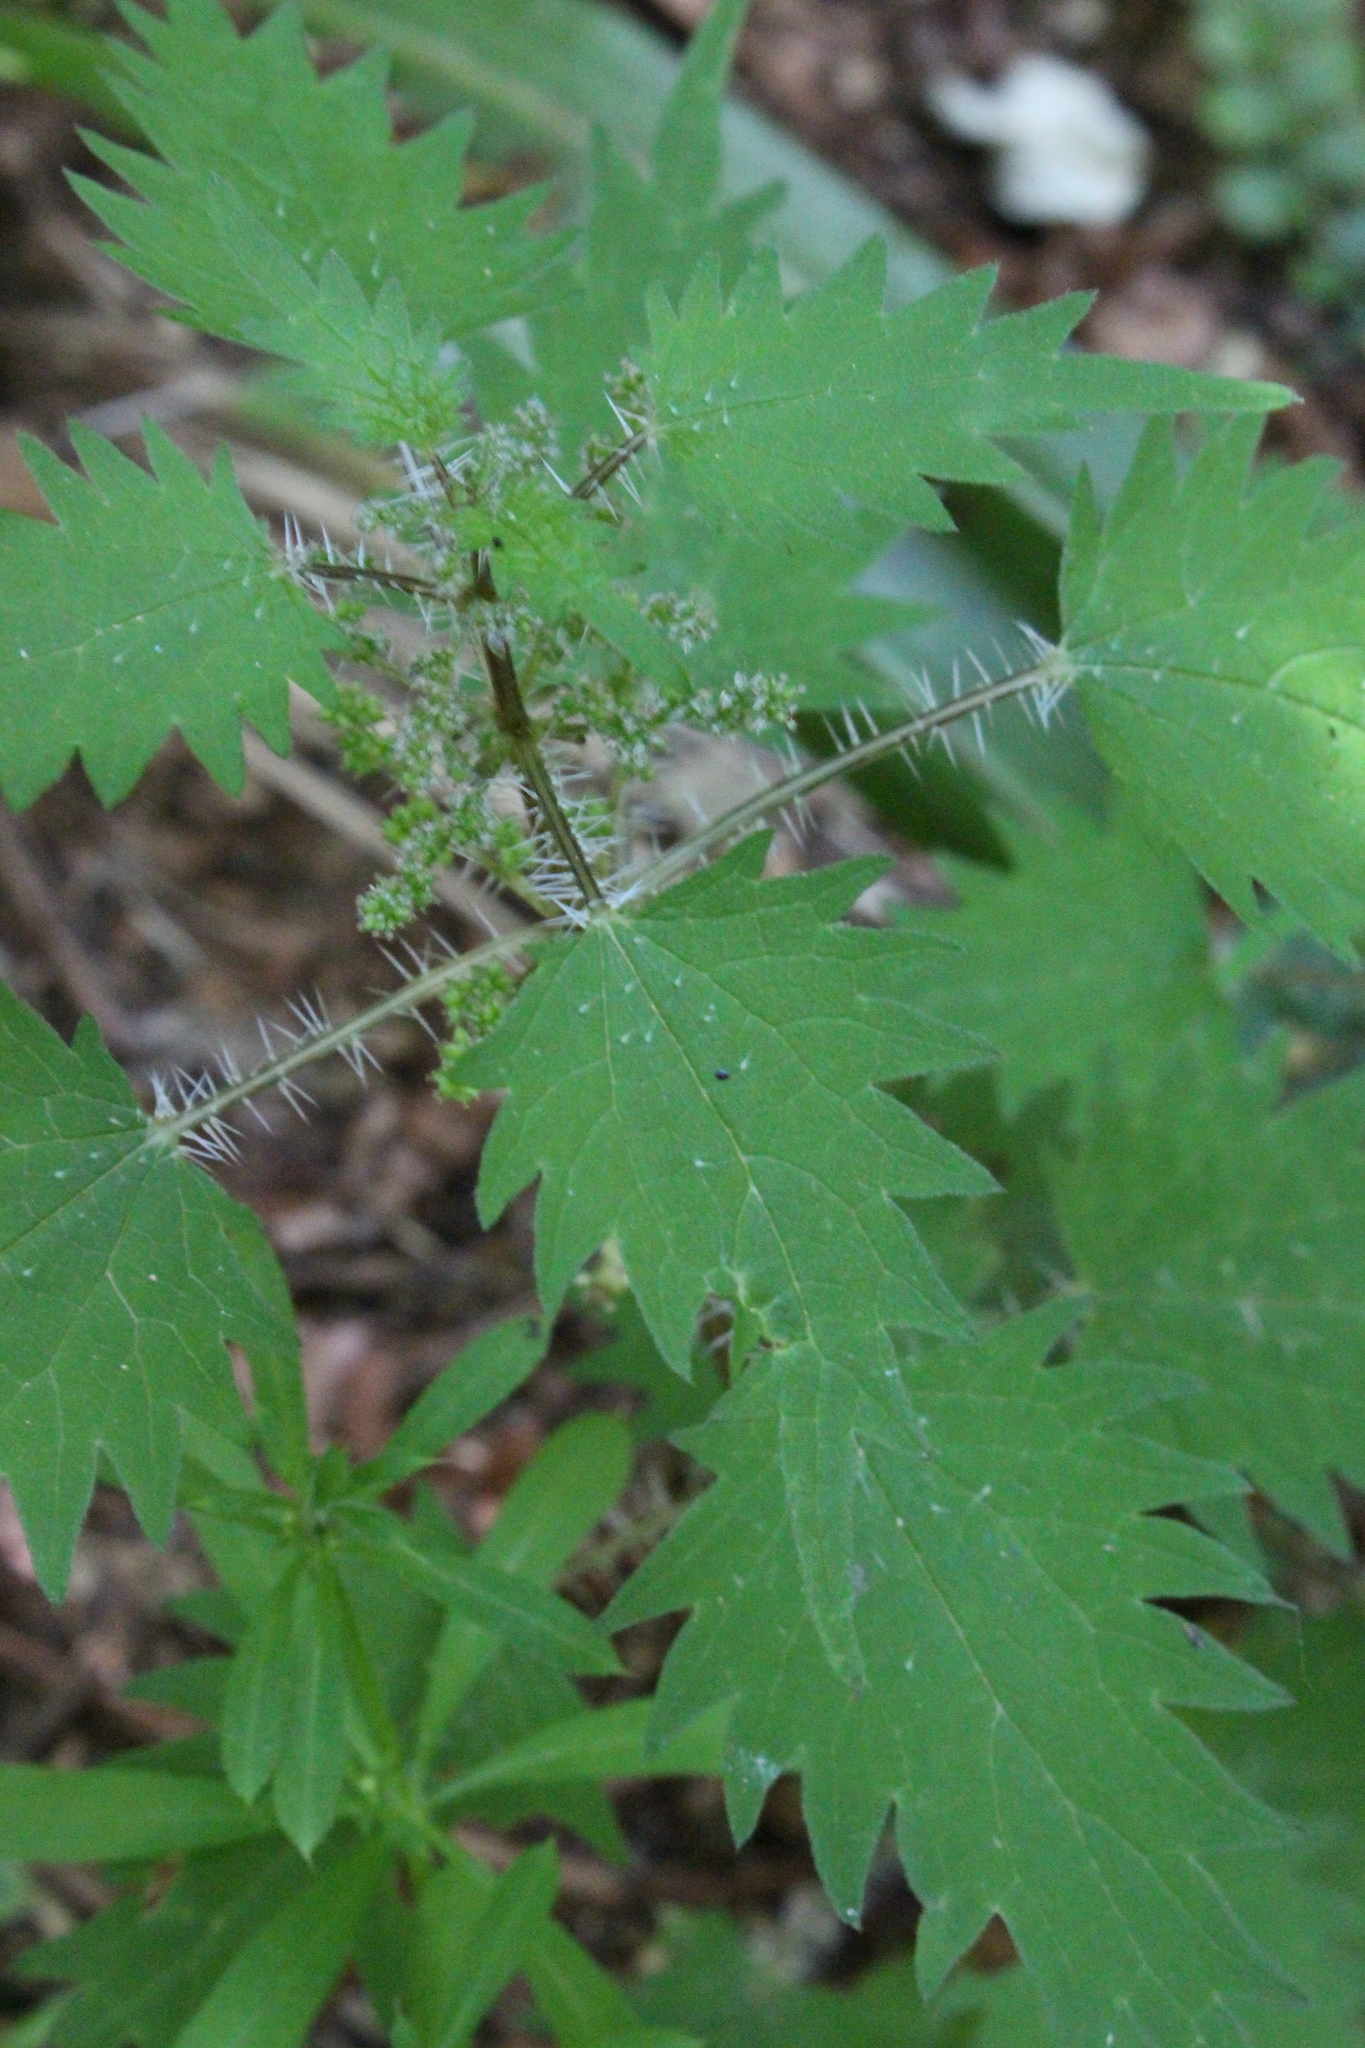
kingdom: Plantae
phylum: Tracheophyta
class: Magnoliopsida
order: Rosales
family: Urticaceae
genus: Urtica
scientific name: Urtica sykesii
